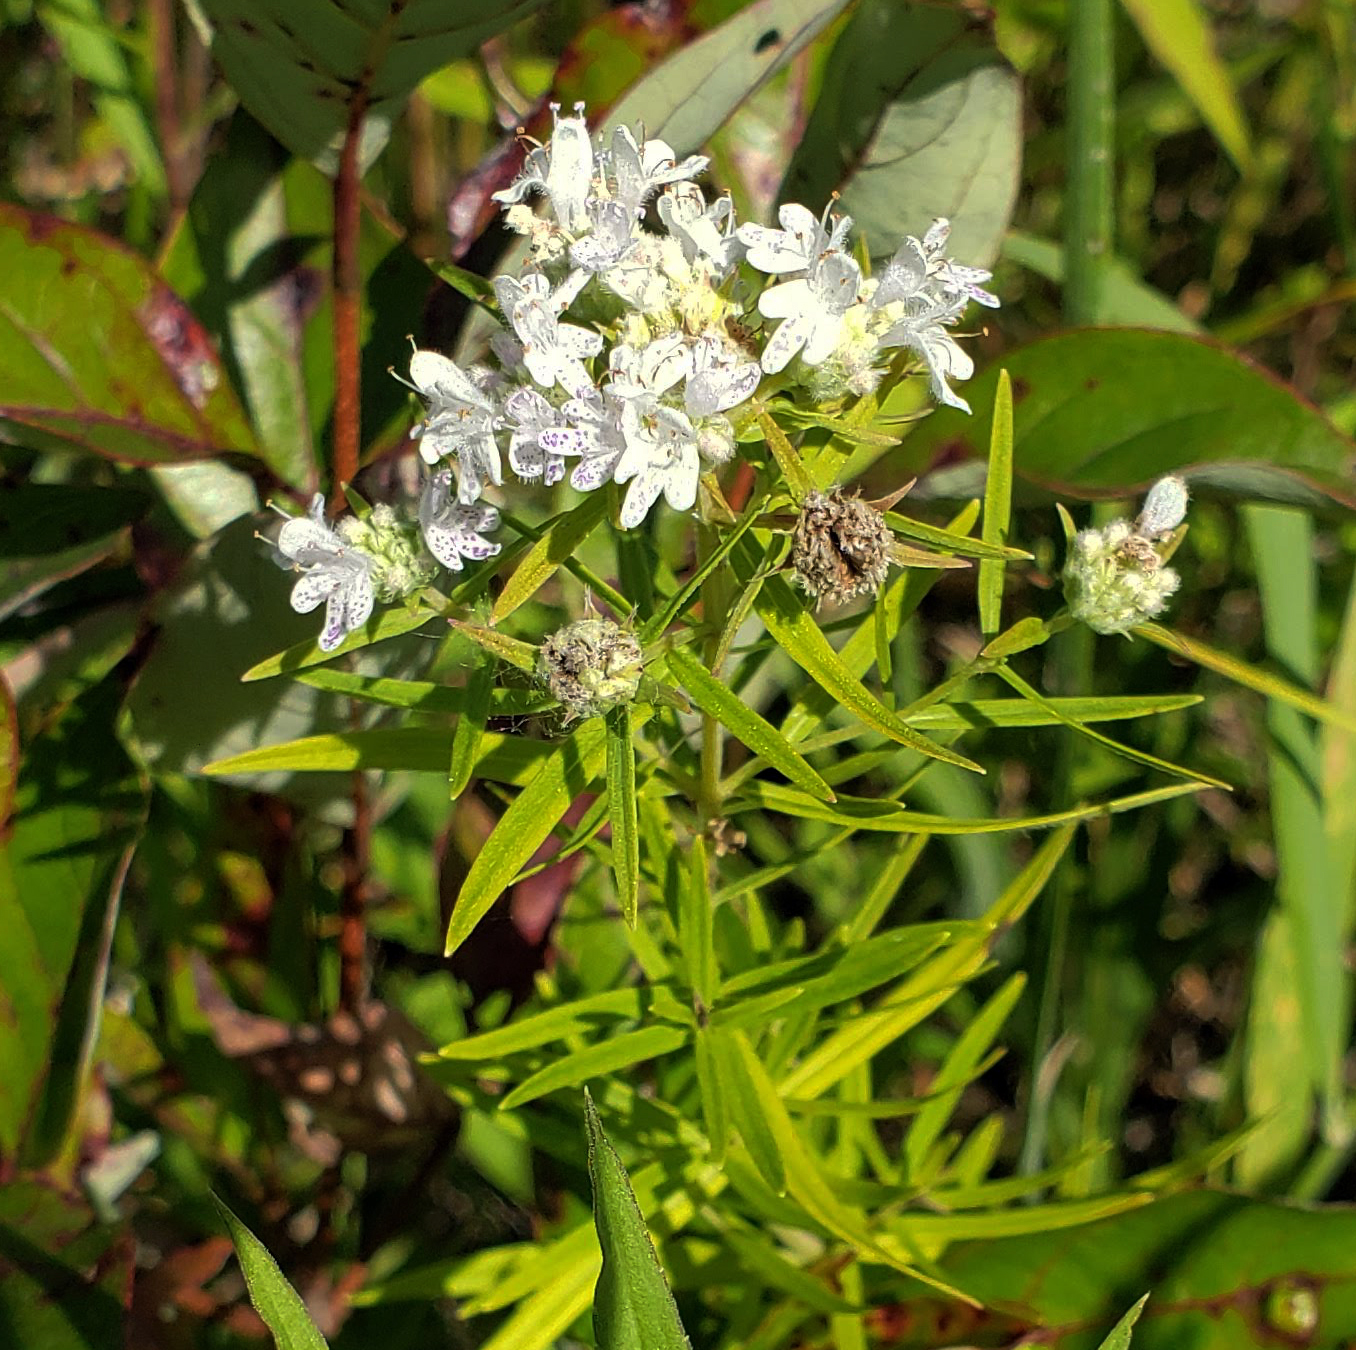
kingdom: Plantae
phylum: Tracheophyta
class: Magnoliopsida
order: Lamiales
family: Lamiaceae
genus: Pycnanthemum
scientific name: Pycnanthemum virginianum
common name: Virginia mountain-mint
